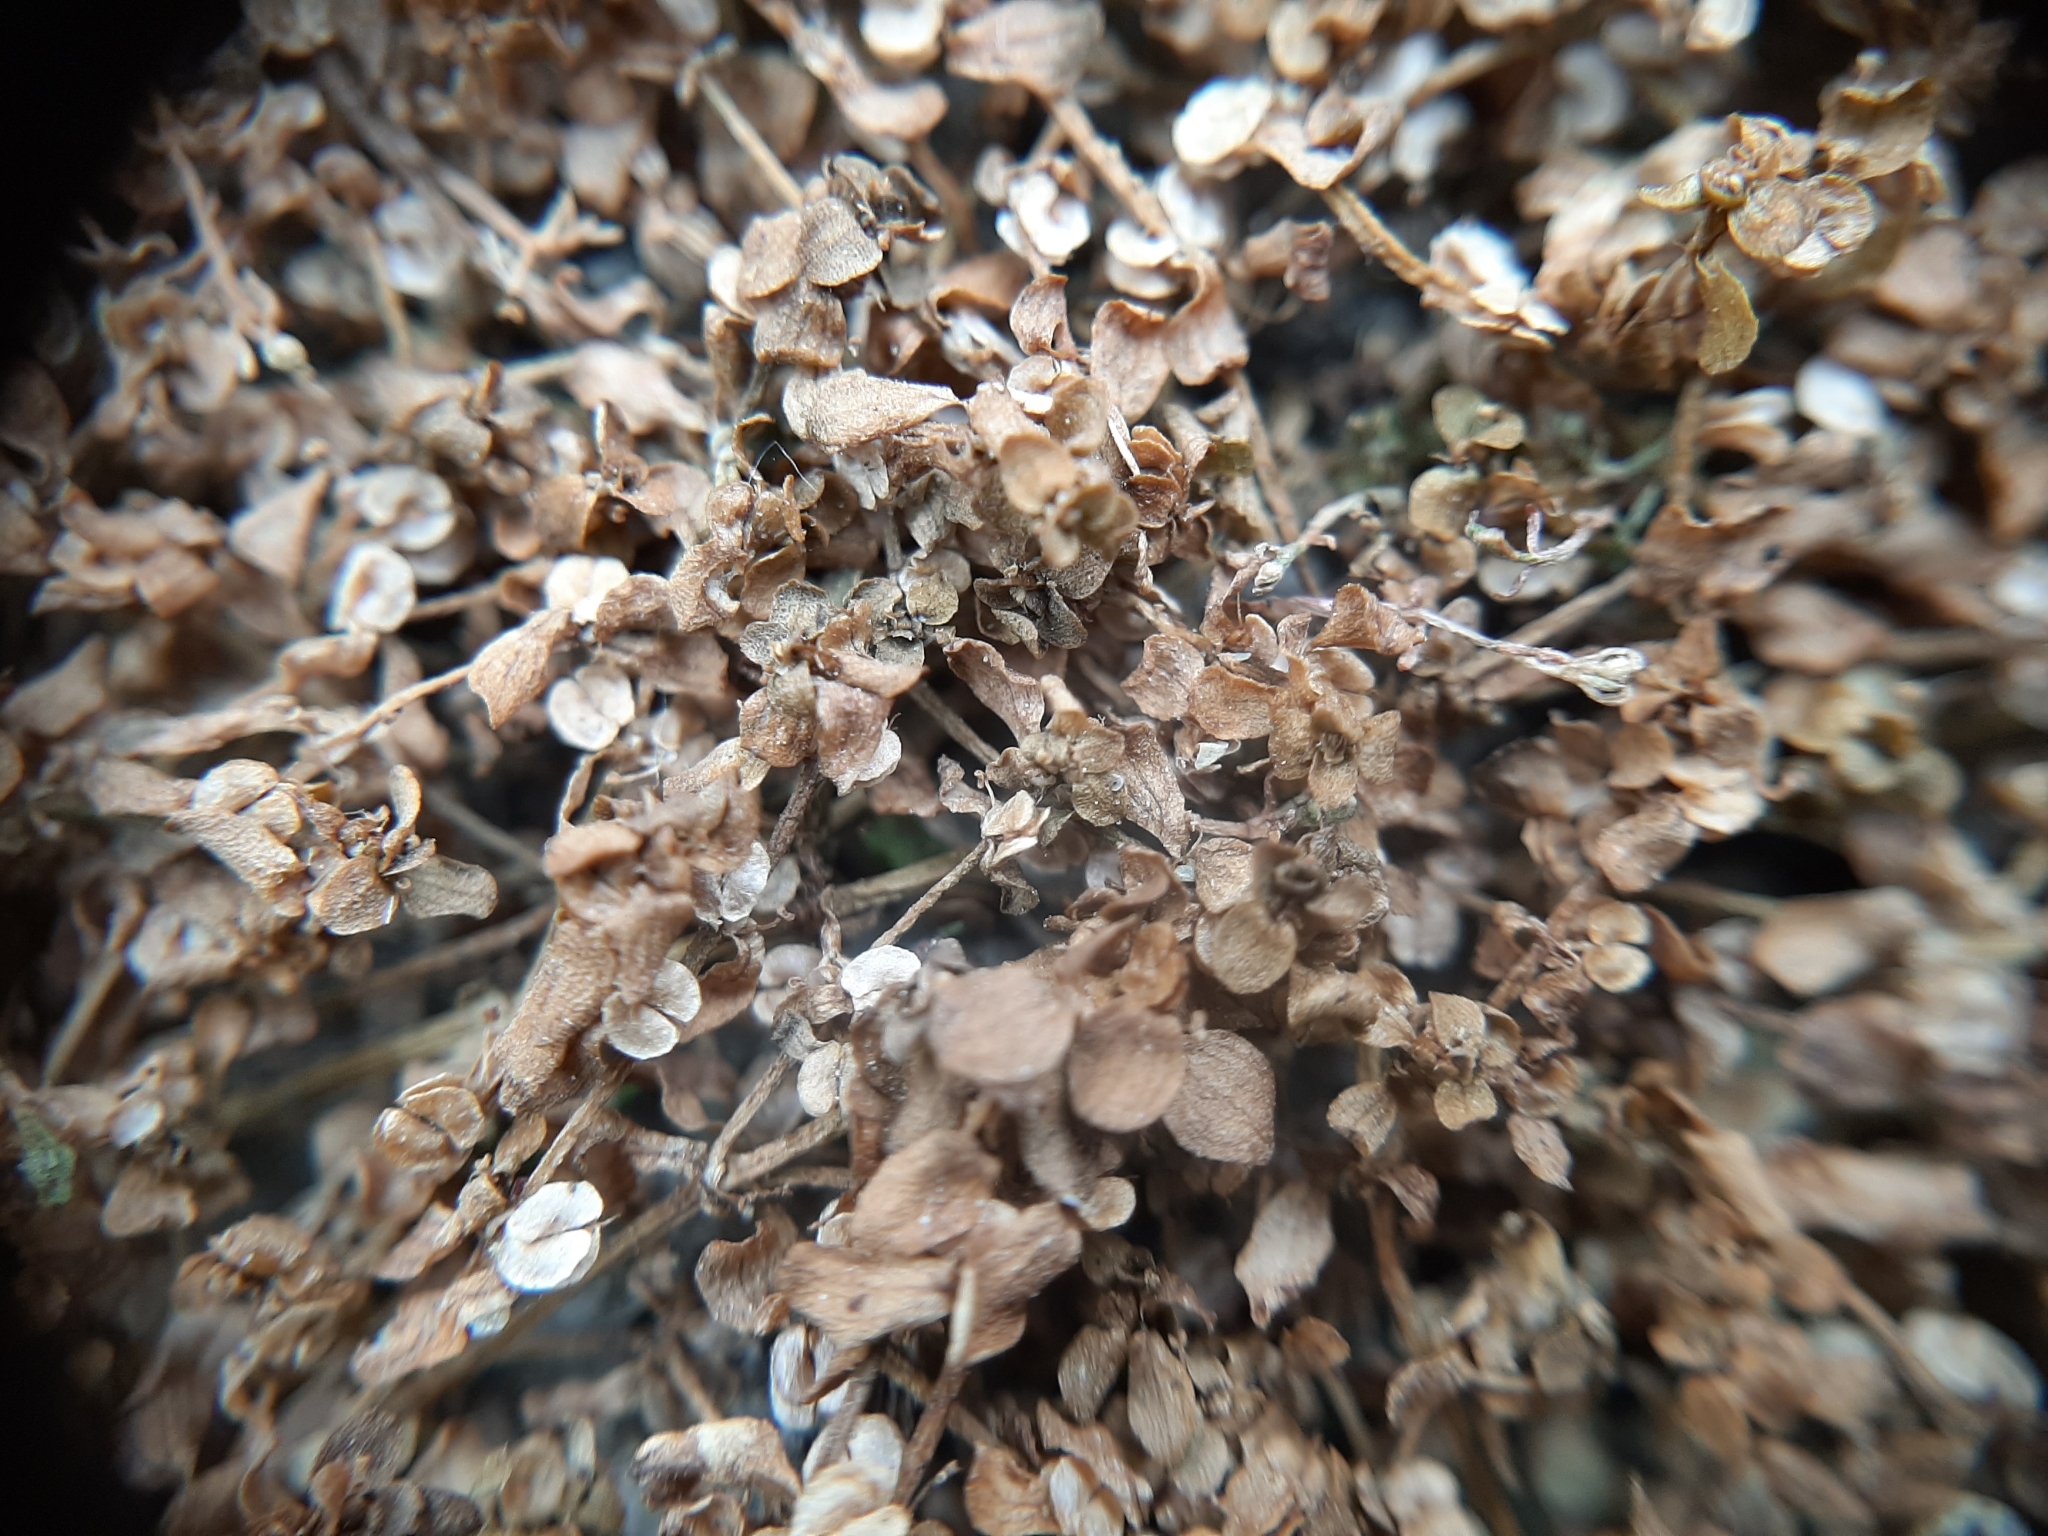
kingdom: Plantae
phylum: Tracheophyta
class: Magnoliopsida
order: Lamiales
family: Plantaginaceae
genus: Callitriche
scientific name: Callitriche stagnalis
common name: Common water-starwort
